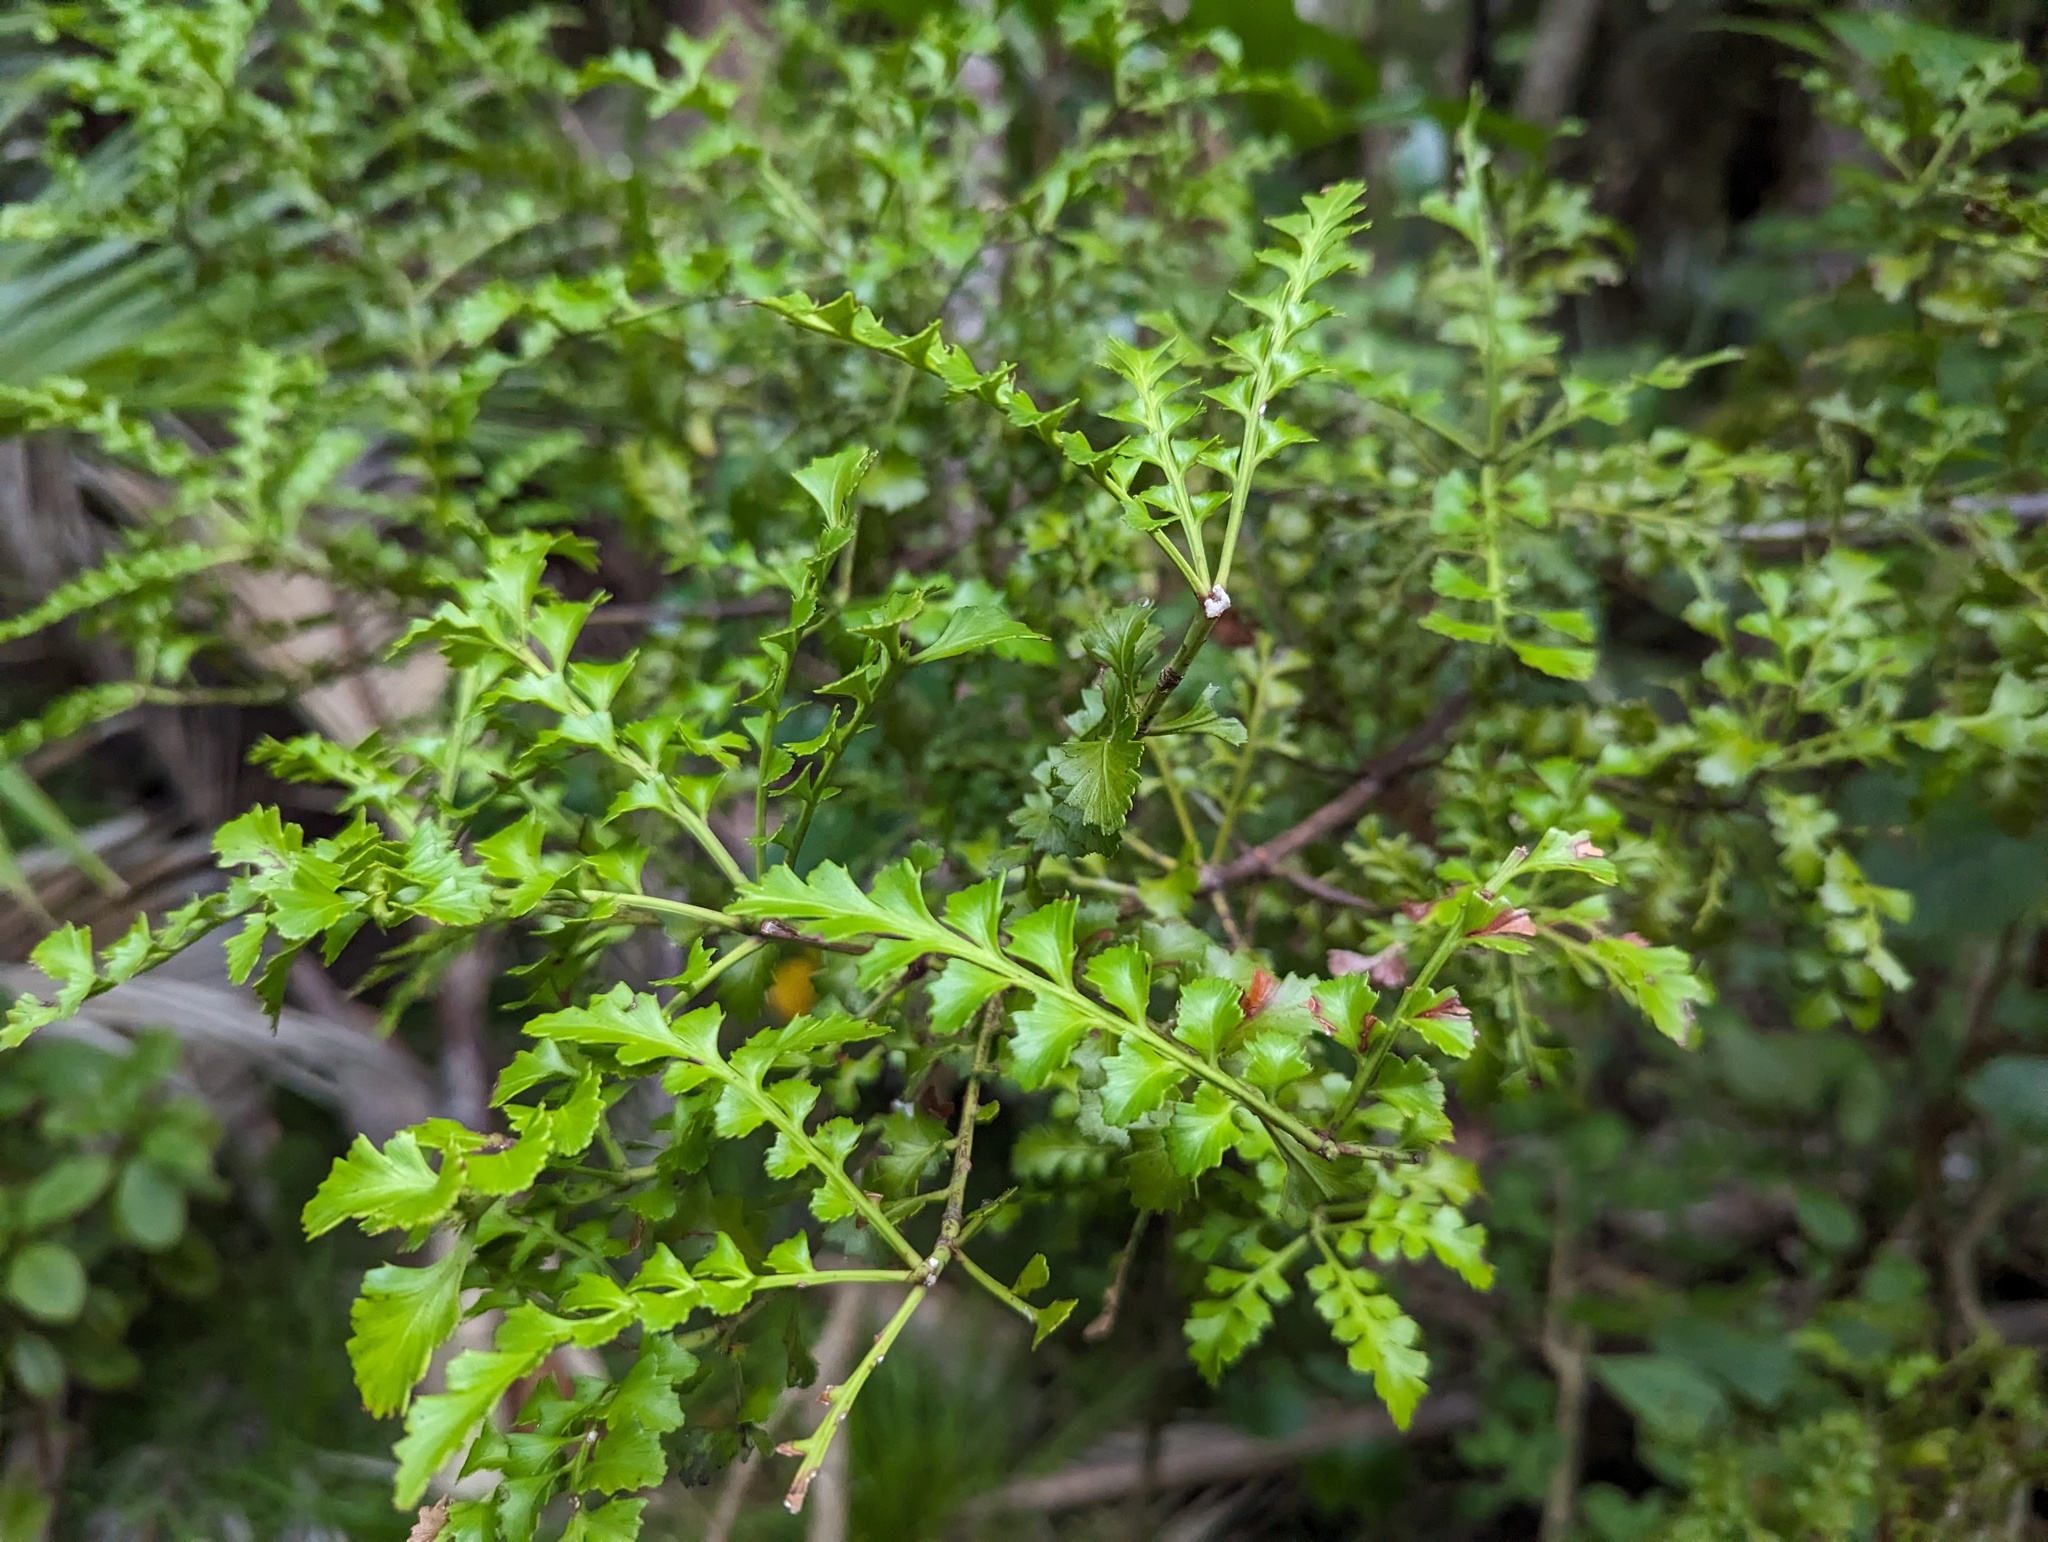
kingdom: Plantae
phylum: Tracheophyta
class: Pinopsida
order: Pinales
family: Phyllocladaceae
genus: Phyllocladus
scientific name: Phyllocladus trichomanoides
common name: Celery pine
